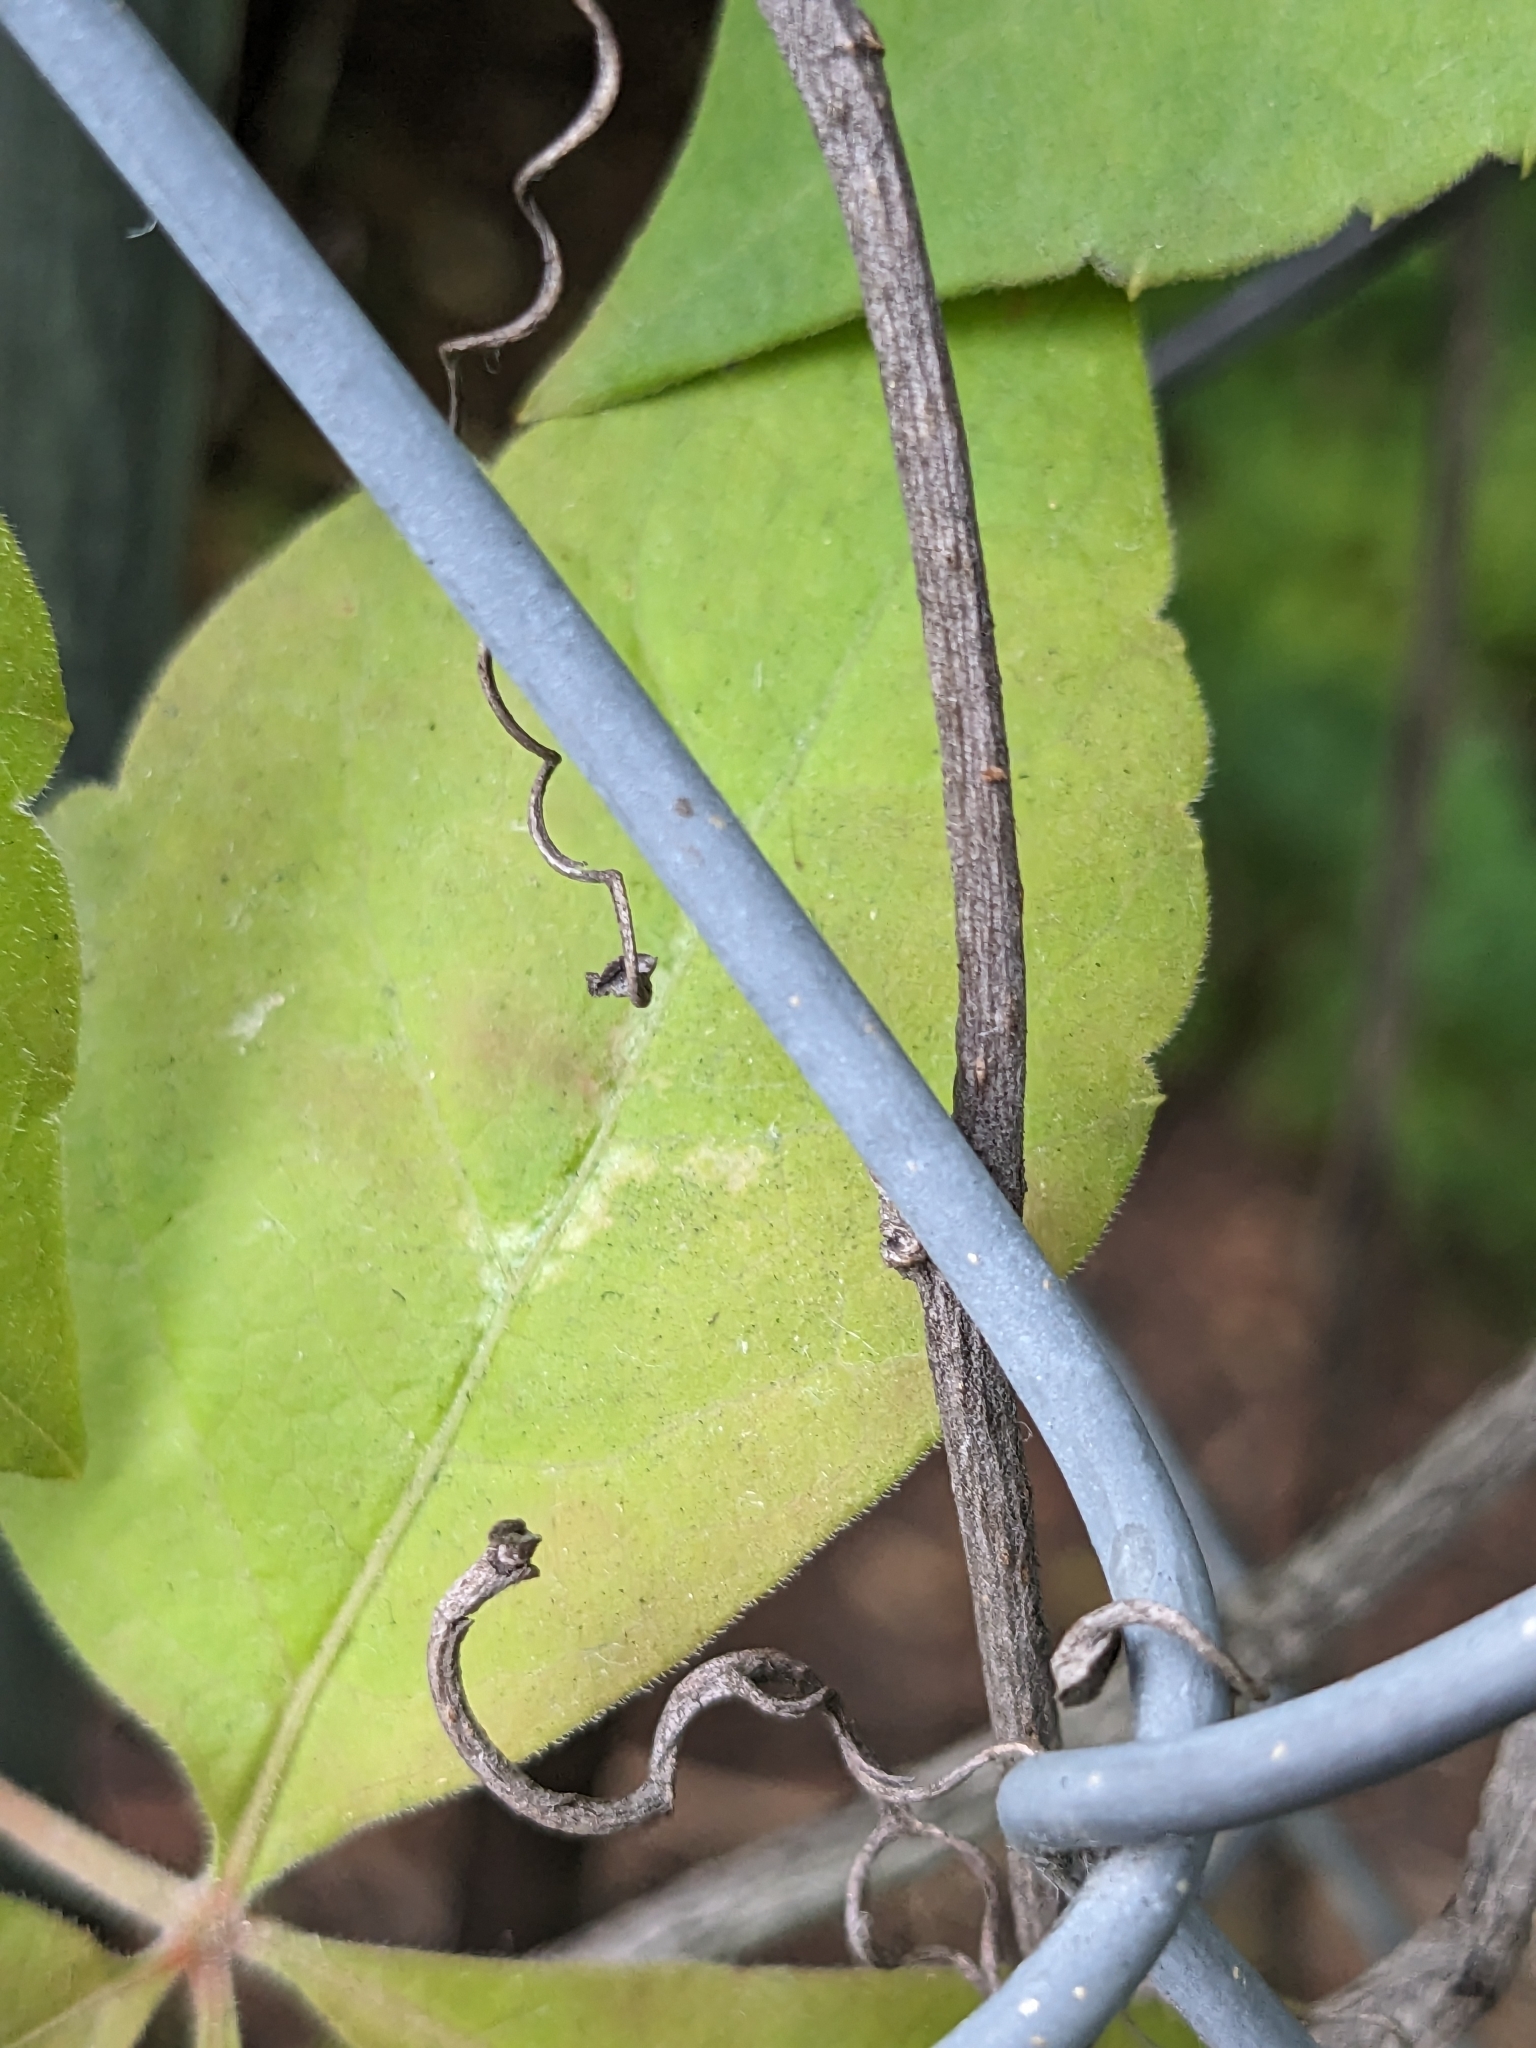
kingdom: Plantae
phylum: Tracheophyta
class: Magnoliopsida
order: Vitales
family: Vitaceae
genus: Parthenocissus
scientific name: Parthenocissus quinquefolia
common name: Virginia-creeper
